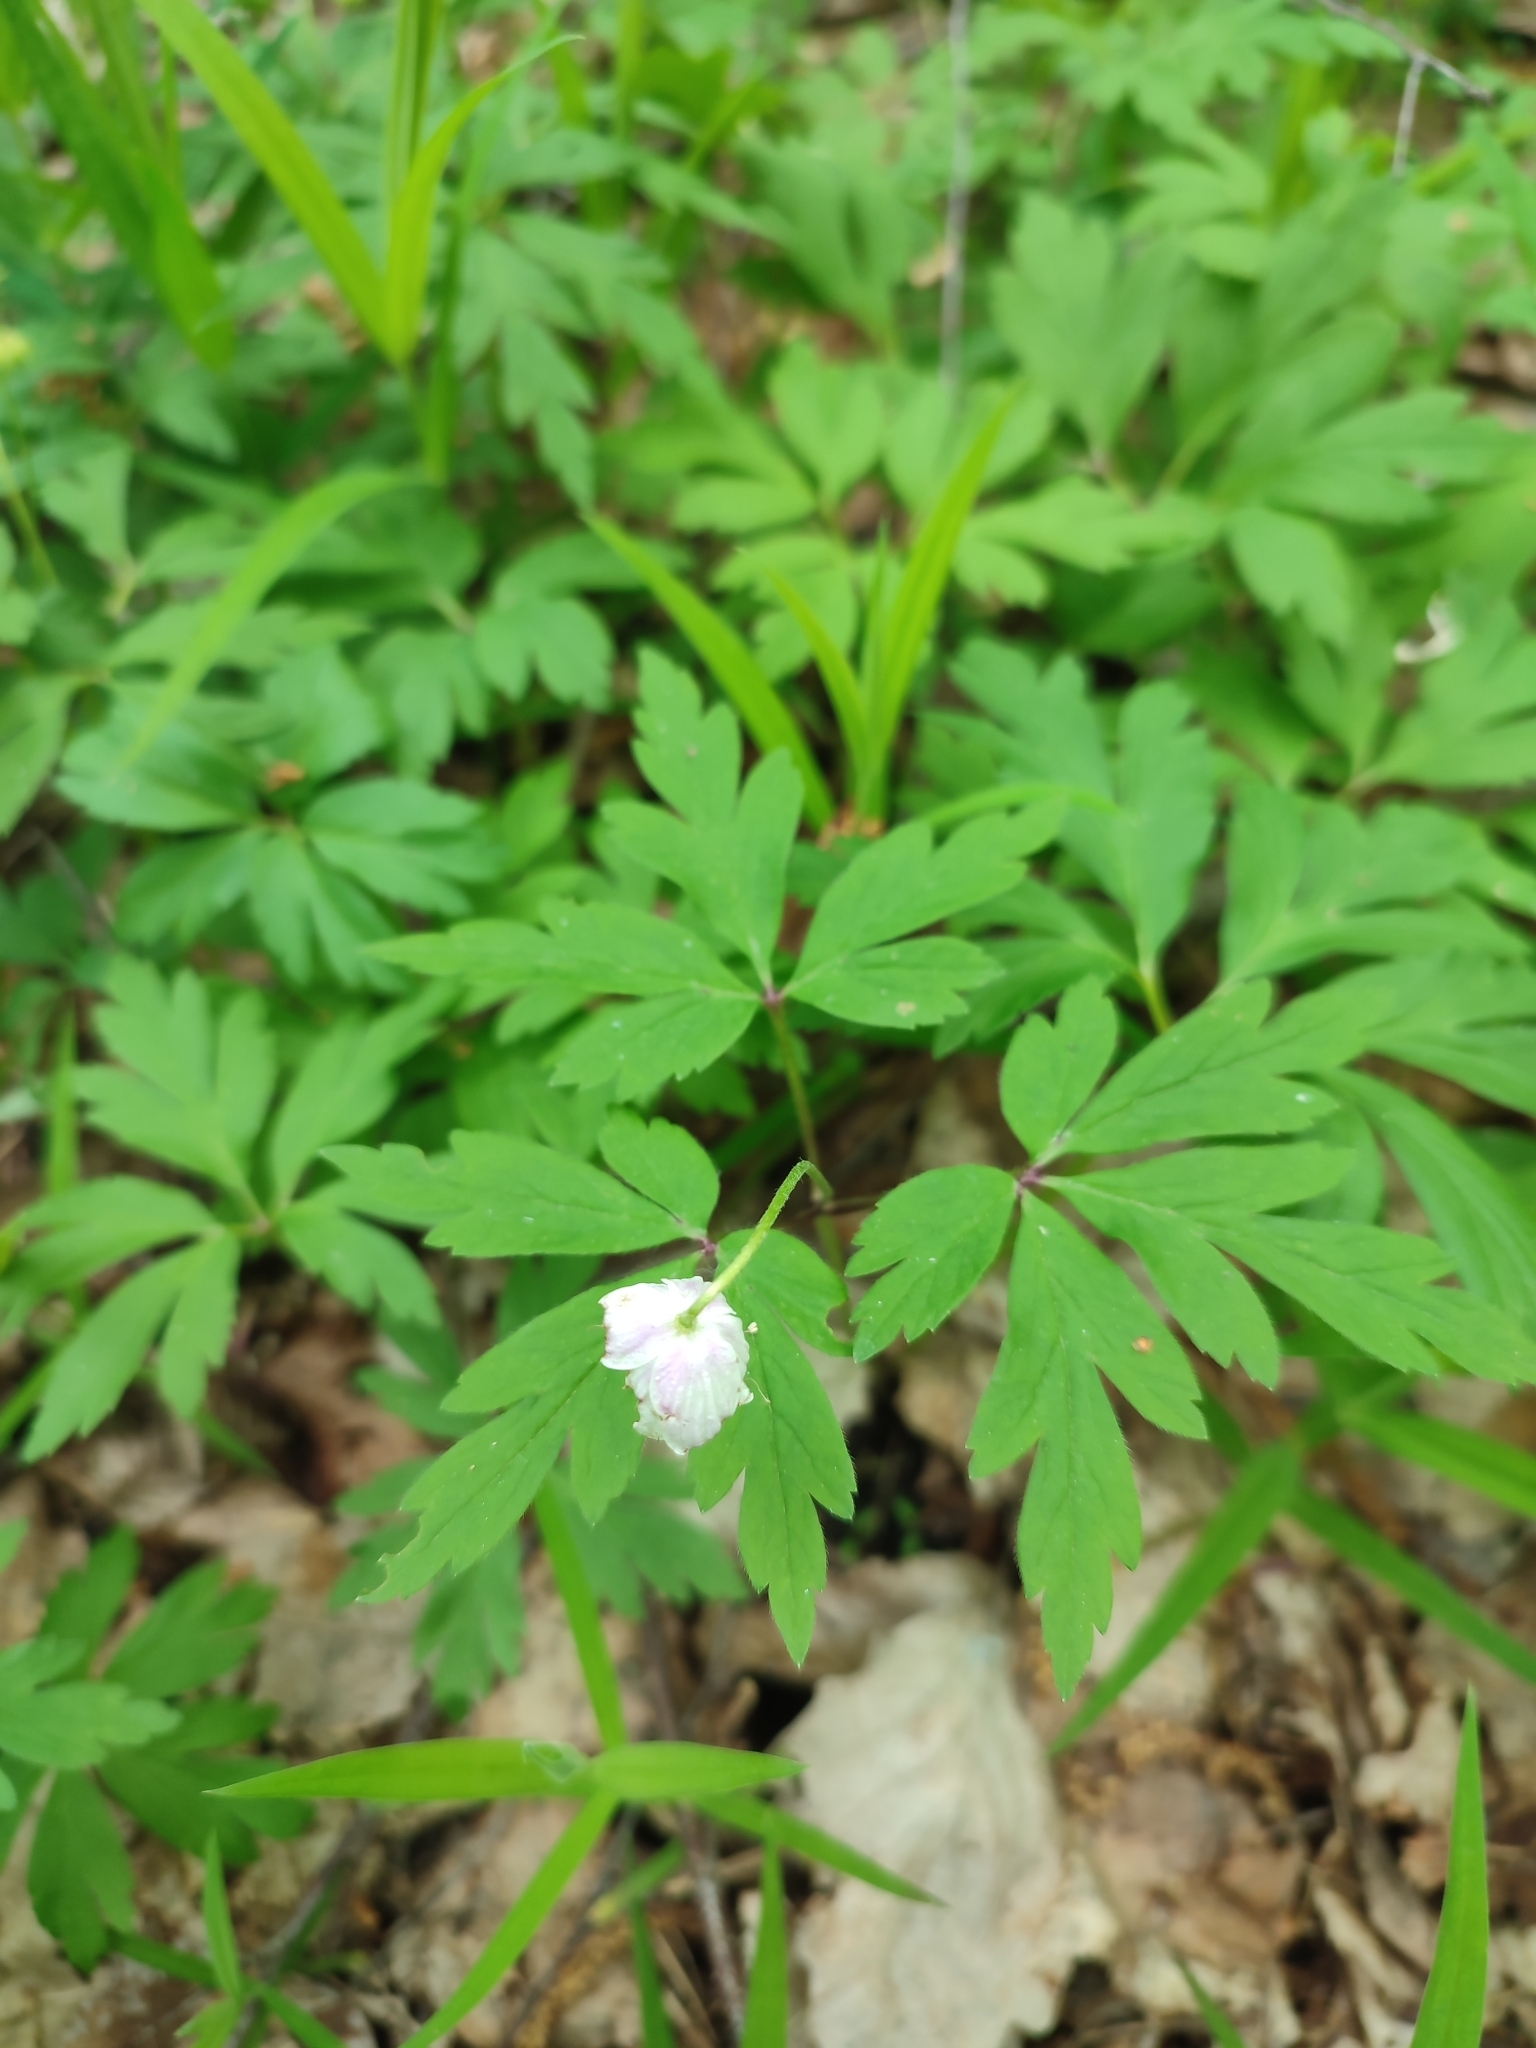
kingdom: Plantae
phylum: Tracheophyta
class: Magnoliopsida
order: Ranunculales
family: Ranunculaceae
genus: Anemone
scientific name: Anemone nemorosa
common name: Wood anemone
